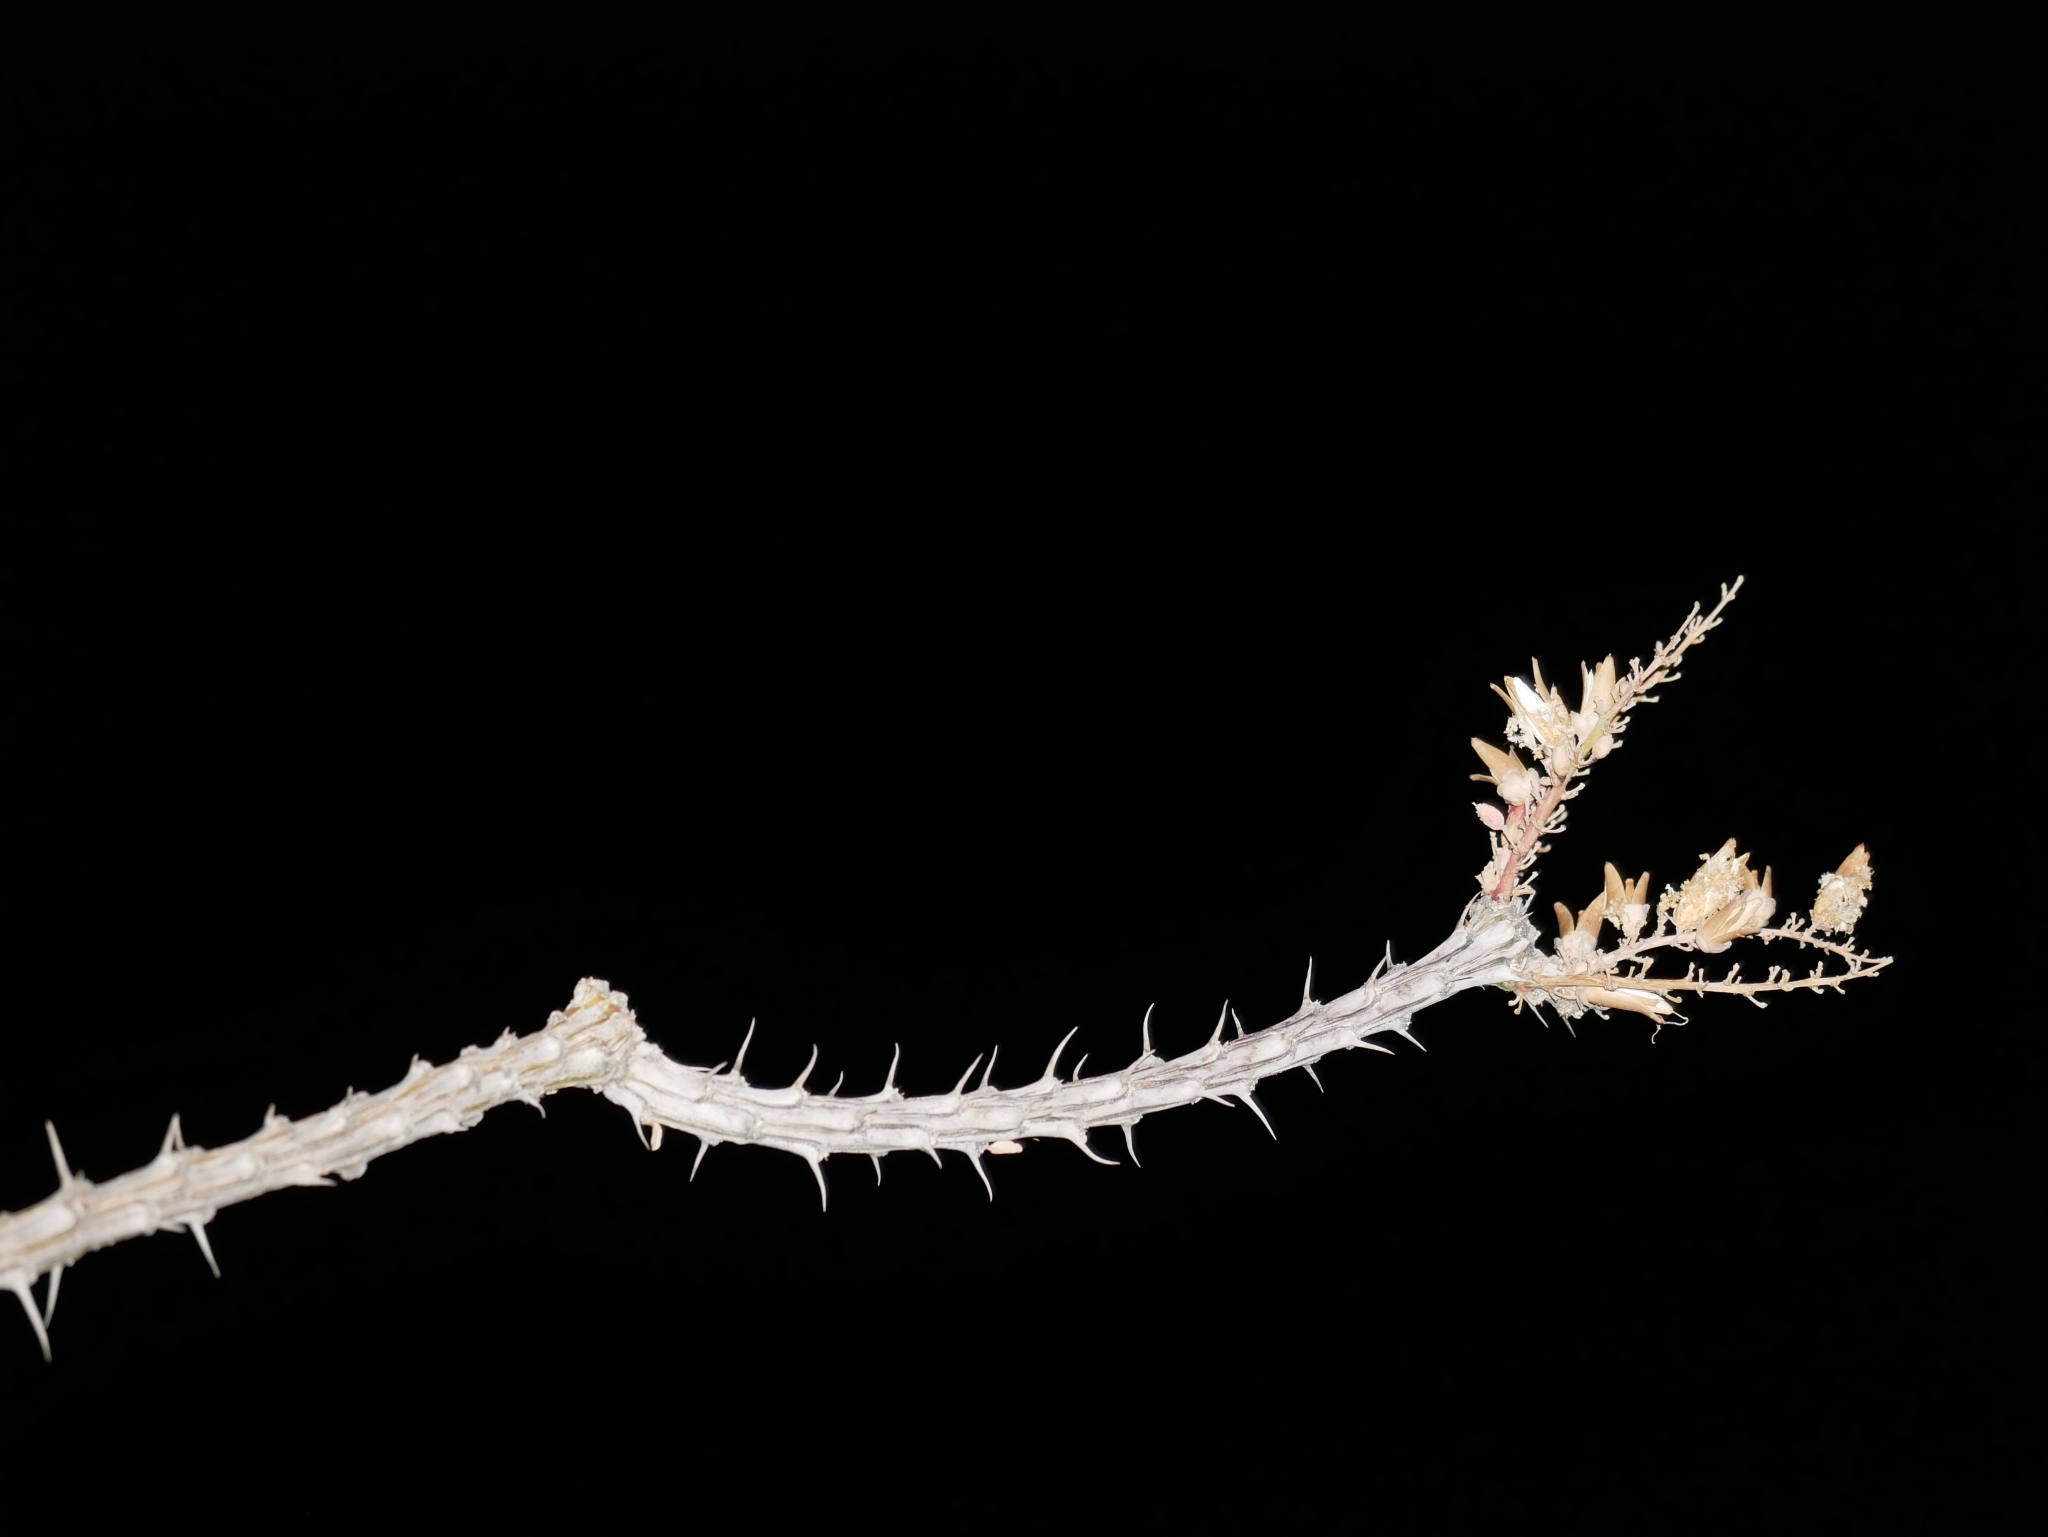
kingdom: Plantae
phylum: Tracheophyta
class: Magnoliopsida
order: Ericales
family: Fouquieriaceae
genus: Fouquieria
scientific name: Fouquieria splendens
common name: Vine-cactus
